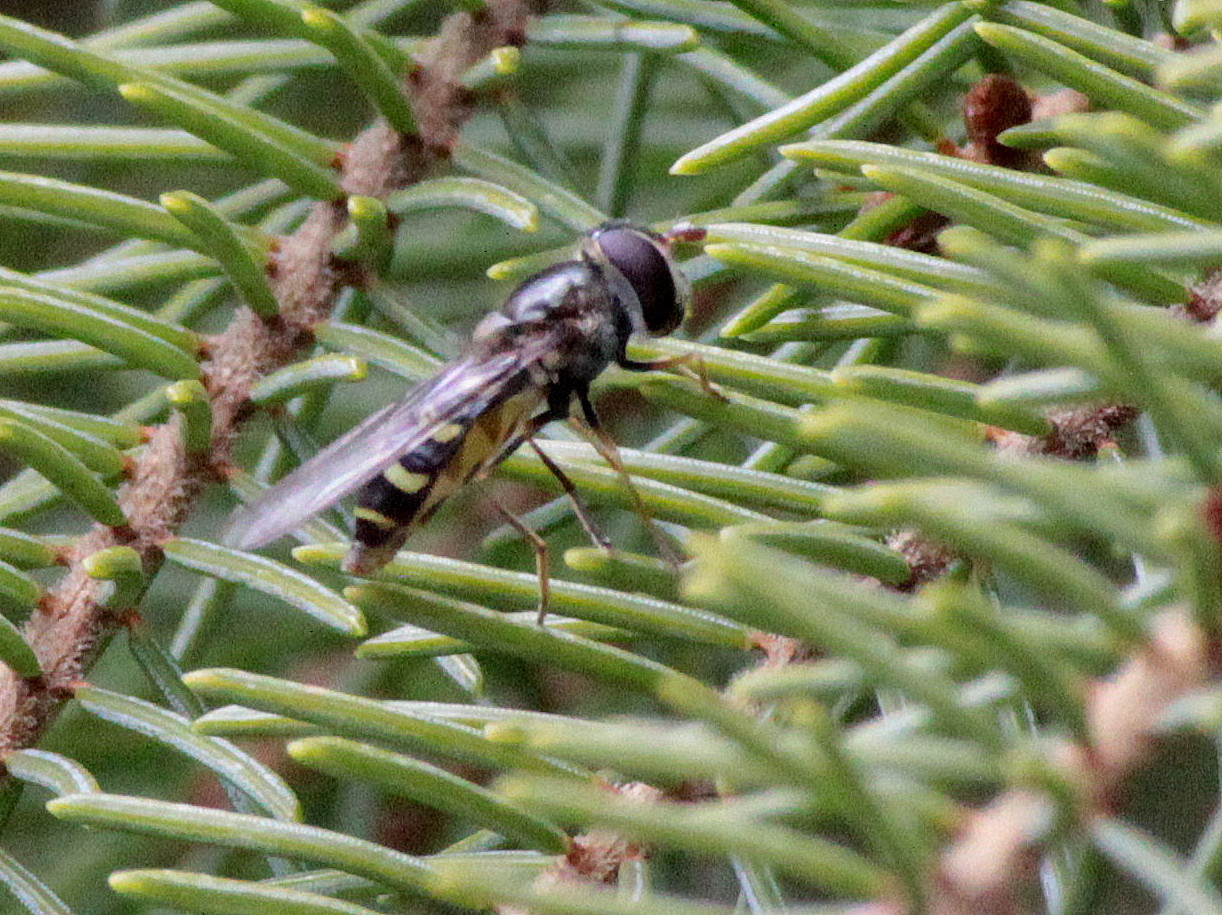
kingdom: Animalia
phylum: Arthropoda
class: Insecta
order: Diptera
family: Syrphidae
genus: Lapposyrphus
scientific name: Lapposyrphus lapponicus
